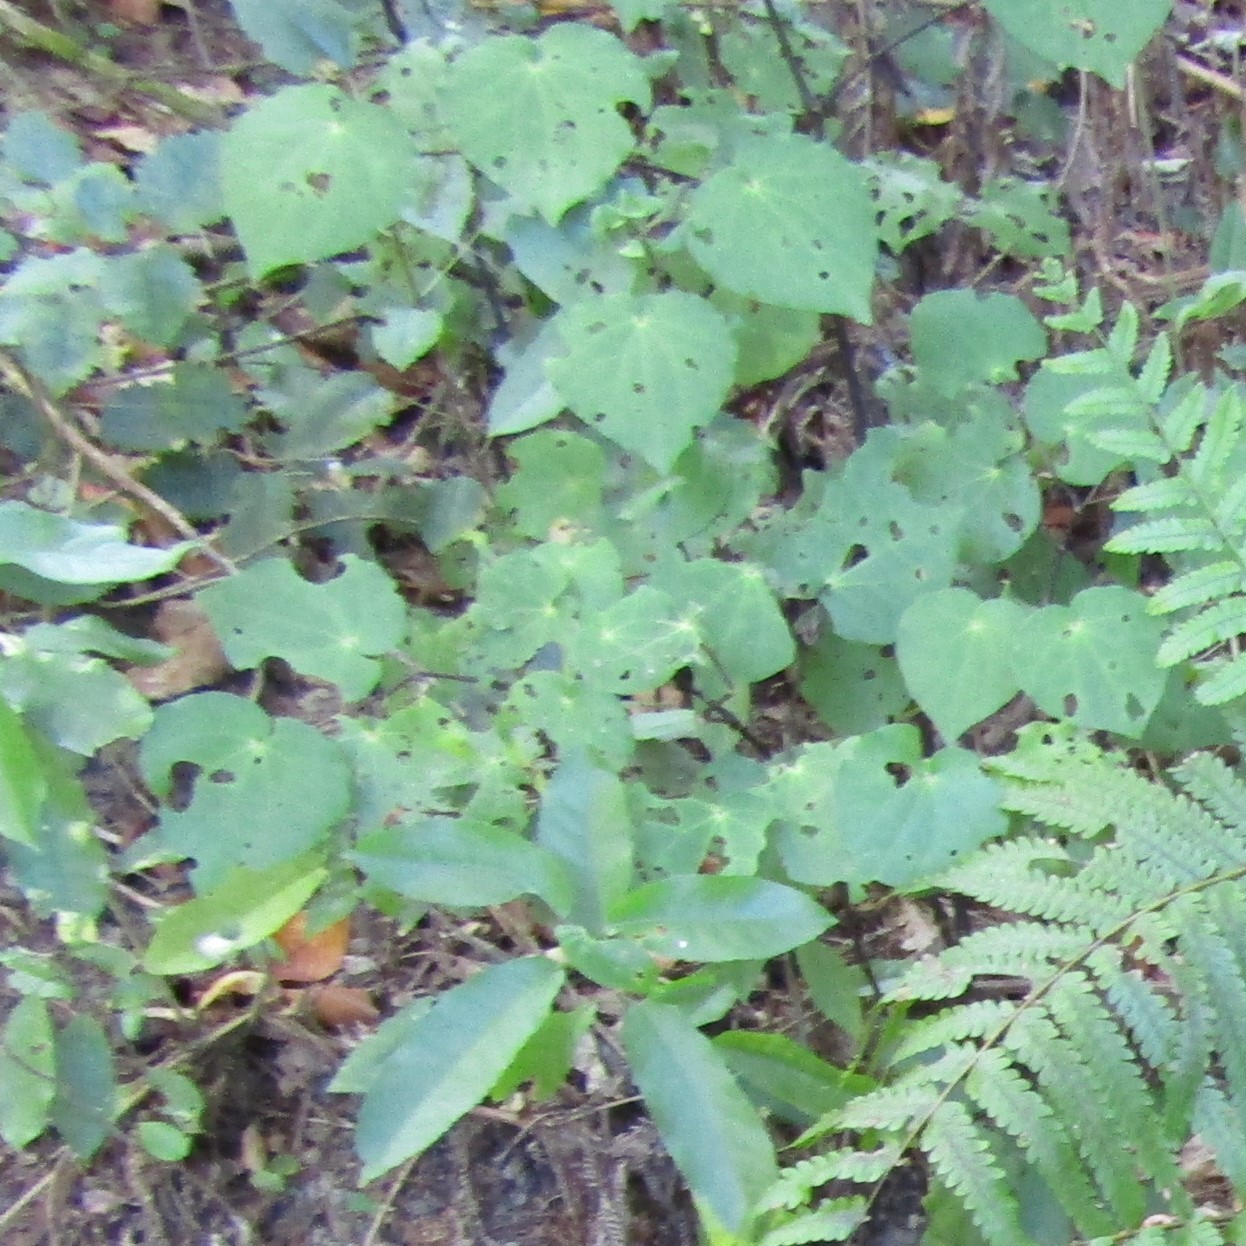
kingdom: Plantae
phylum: Tracheophyta
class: Magnoliopsida
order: Piperales
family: Piperaceae
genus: Macropiper
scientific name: Macropiper excelsum
